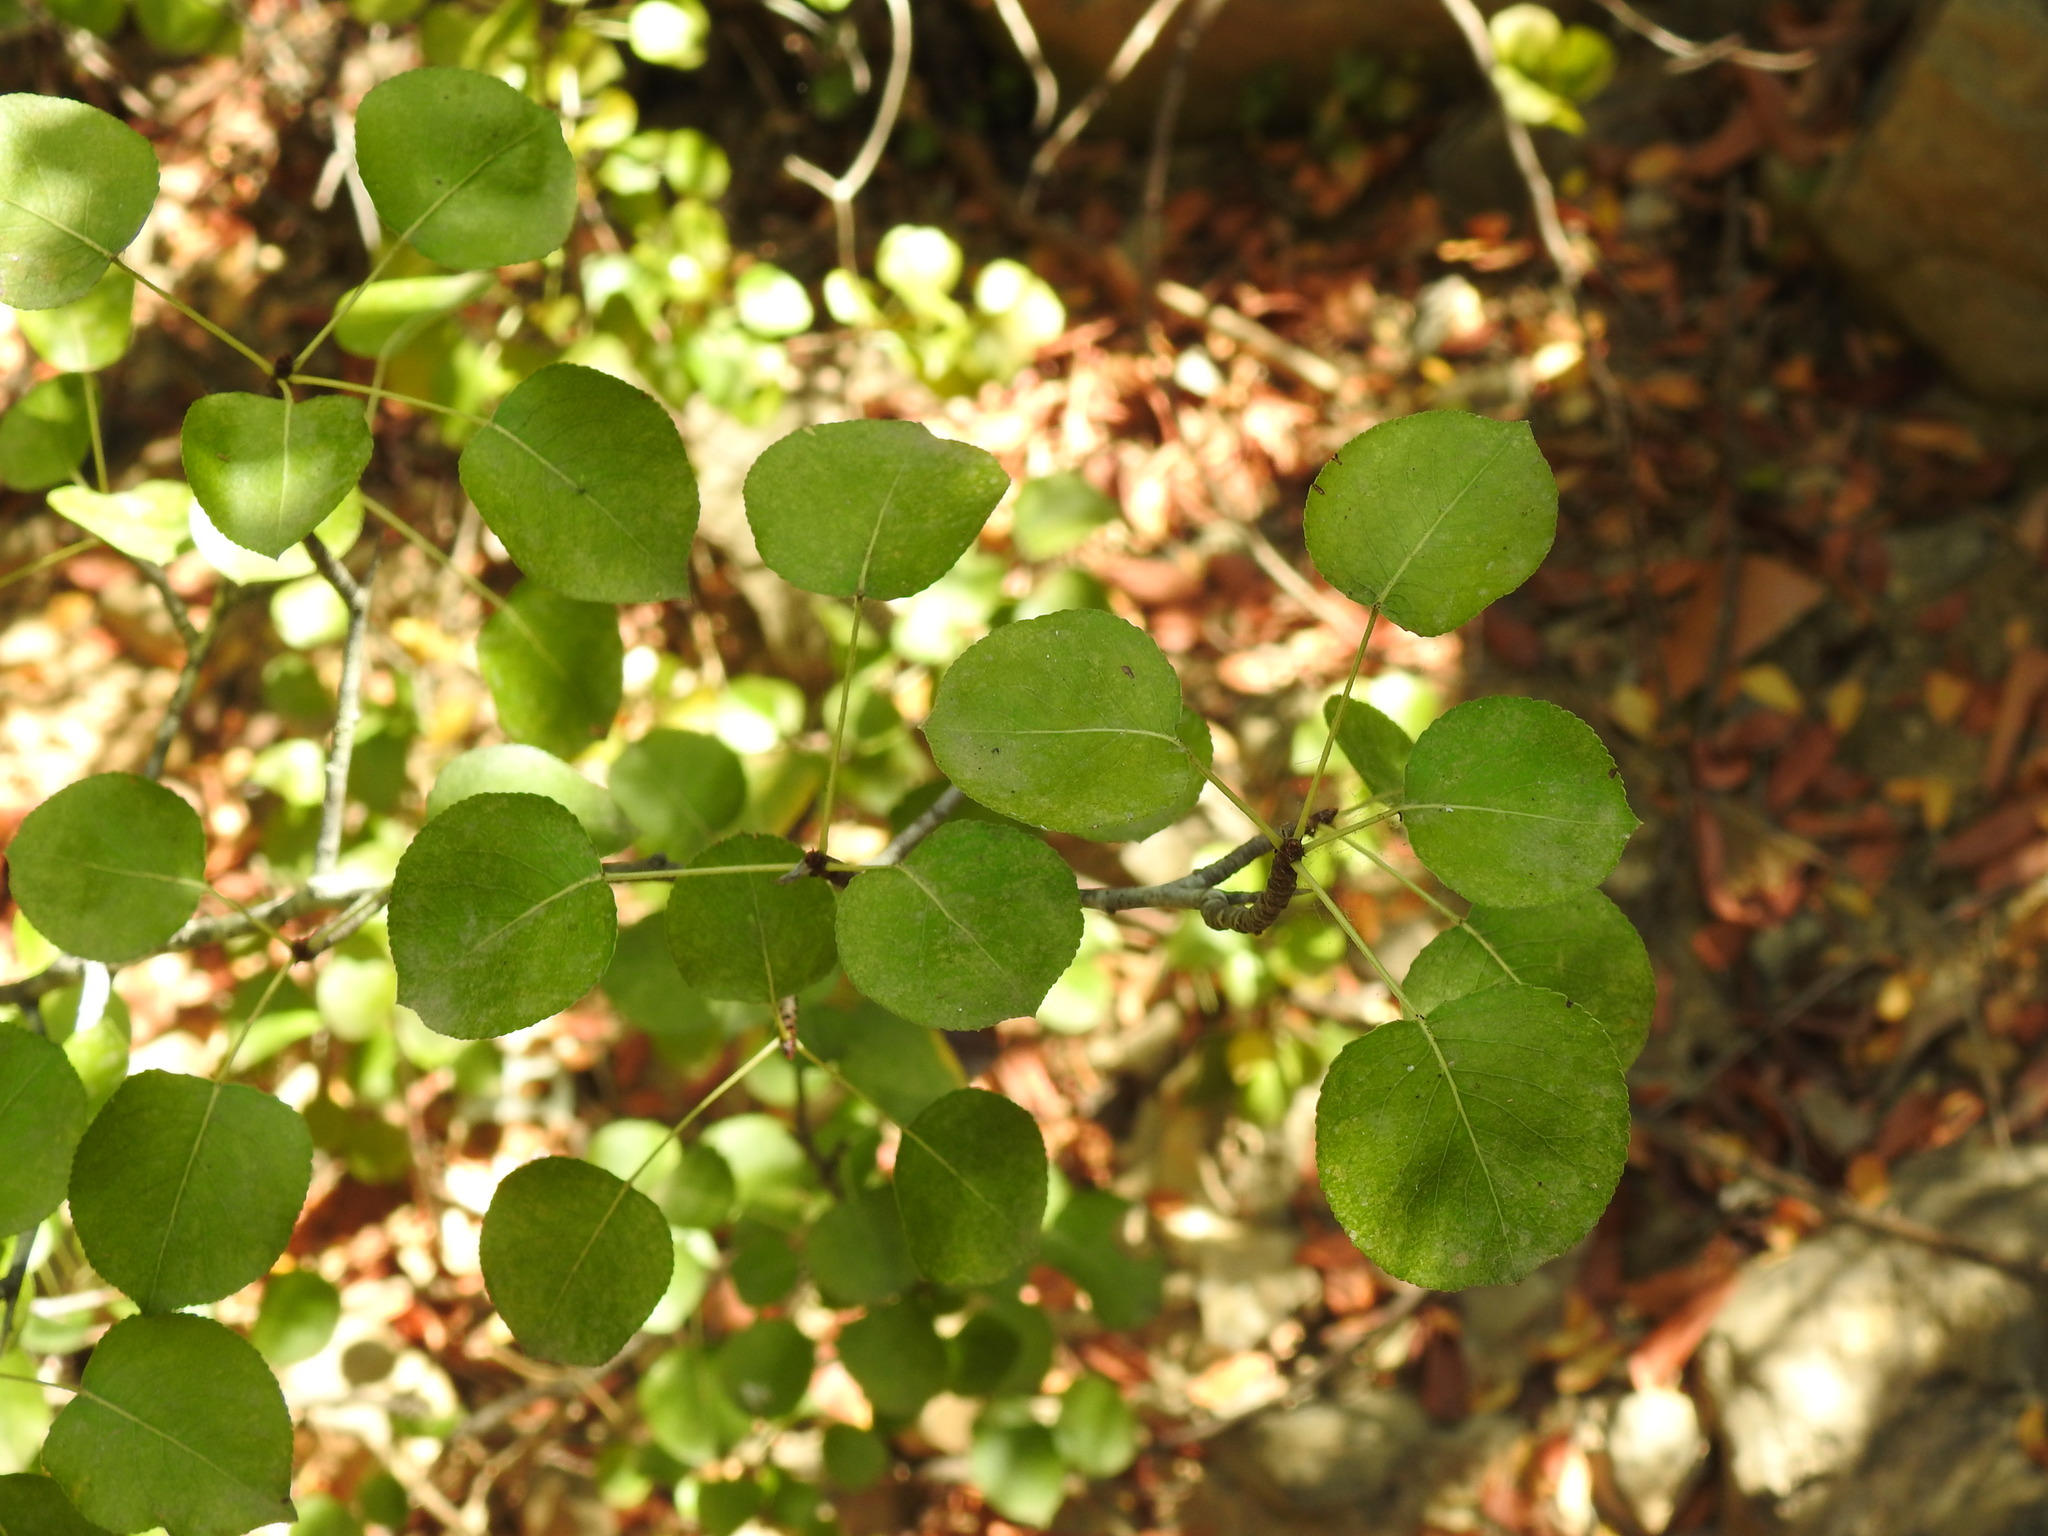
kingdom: Plantae
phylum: Tracheophyta
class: Magnoliopsida
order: Rosales
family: Rosaceae
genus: Pyrus
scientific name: Pyrus bourgaeana
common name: Iberian pear
